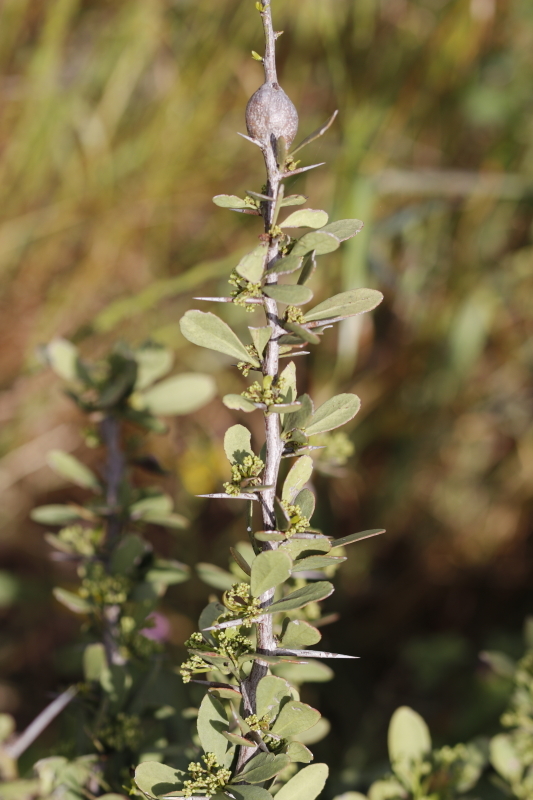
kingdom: Plantae
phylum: Tracheophyta
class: Magnoliopsida
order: Celastrales
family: Celastraceae
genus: Gymnosporia
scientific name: Gymnosporia buxifolia
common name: Common spike-thorn
